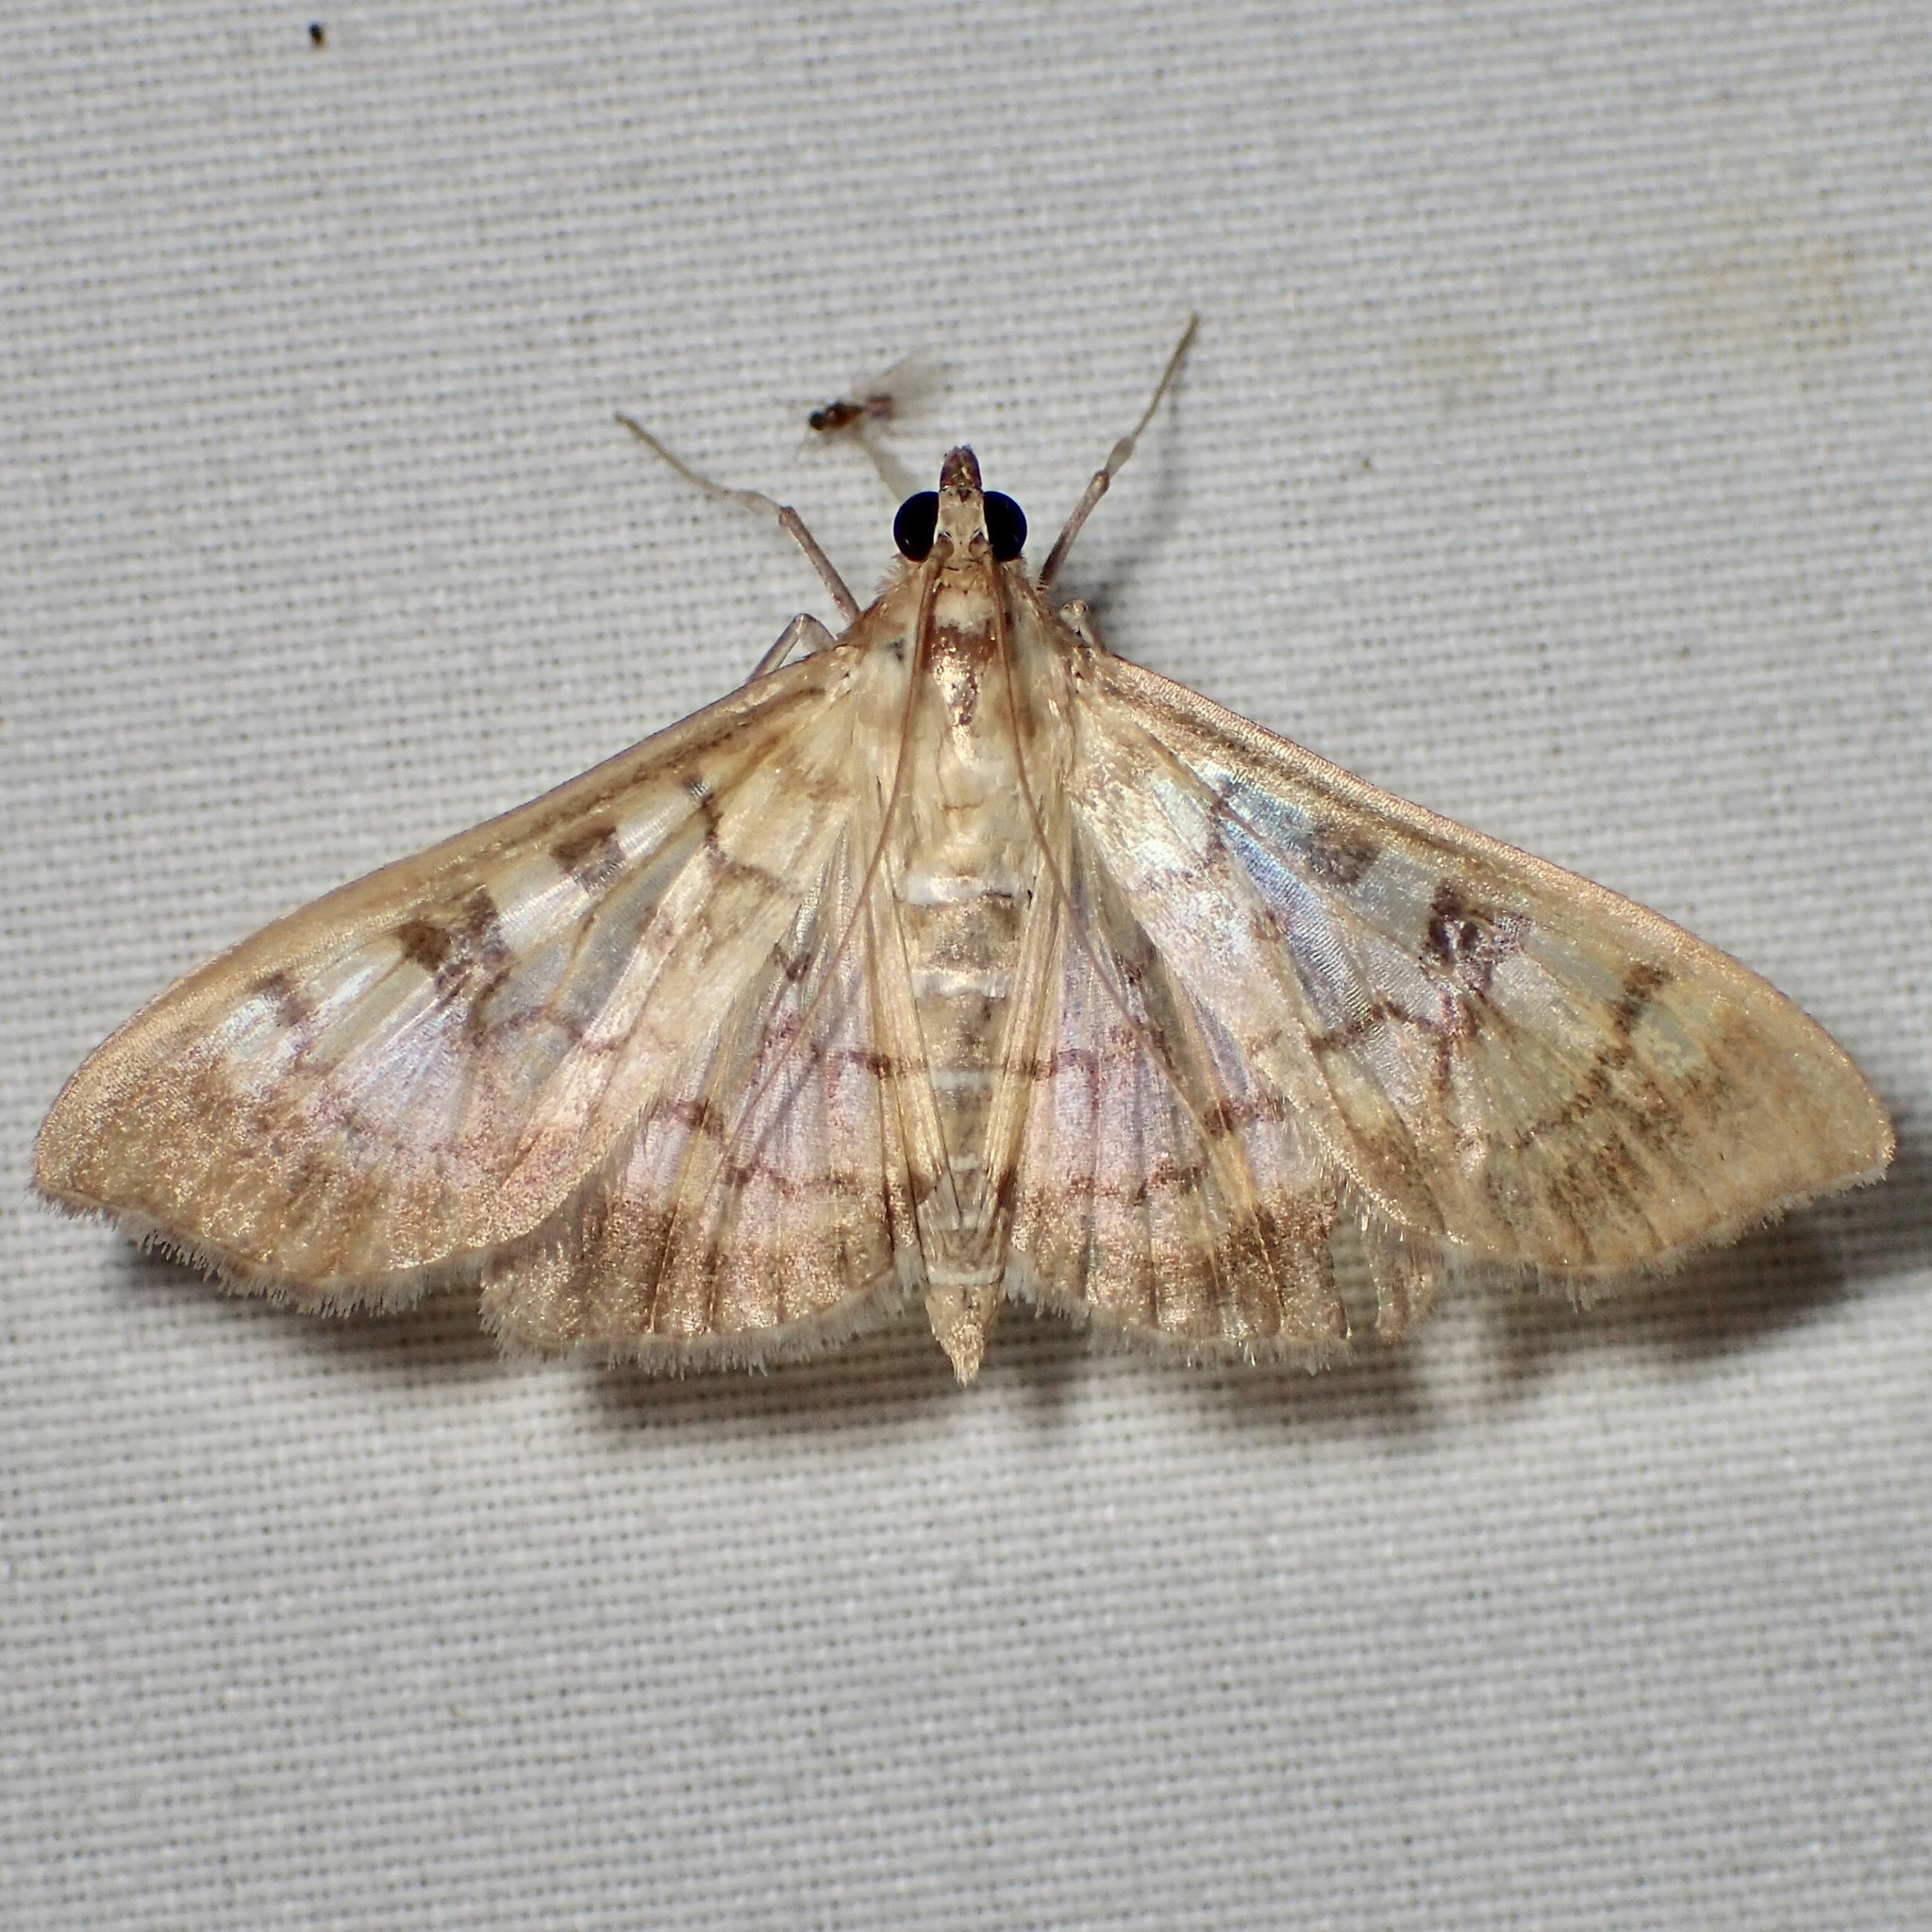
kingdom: Animalia
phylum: Arthropoda
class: Insecta
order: Lepidoptera
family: Crambidae
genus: Mimorista
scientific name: Mimorista subcostalis
